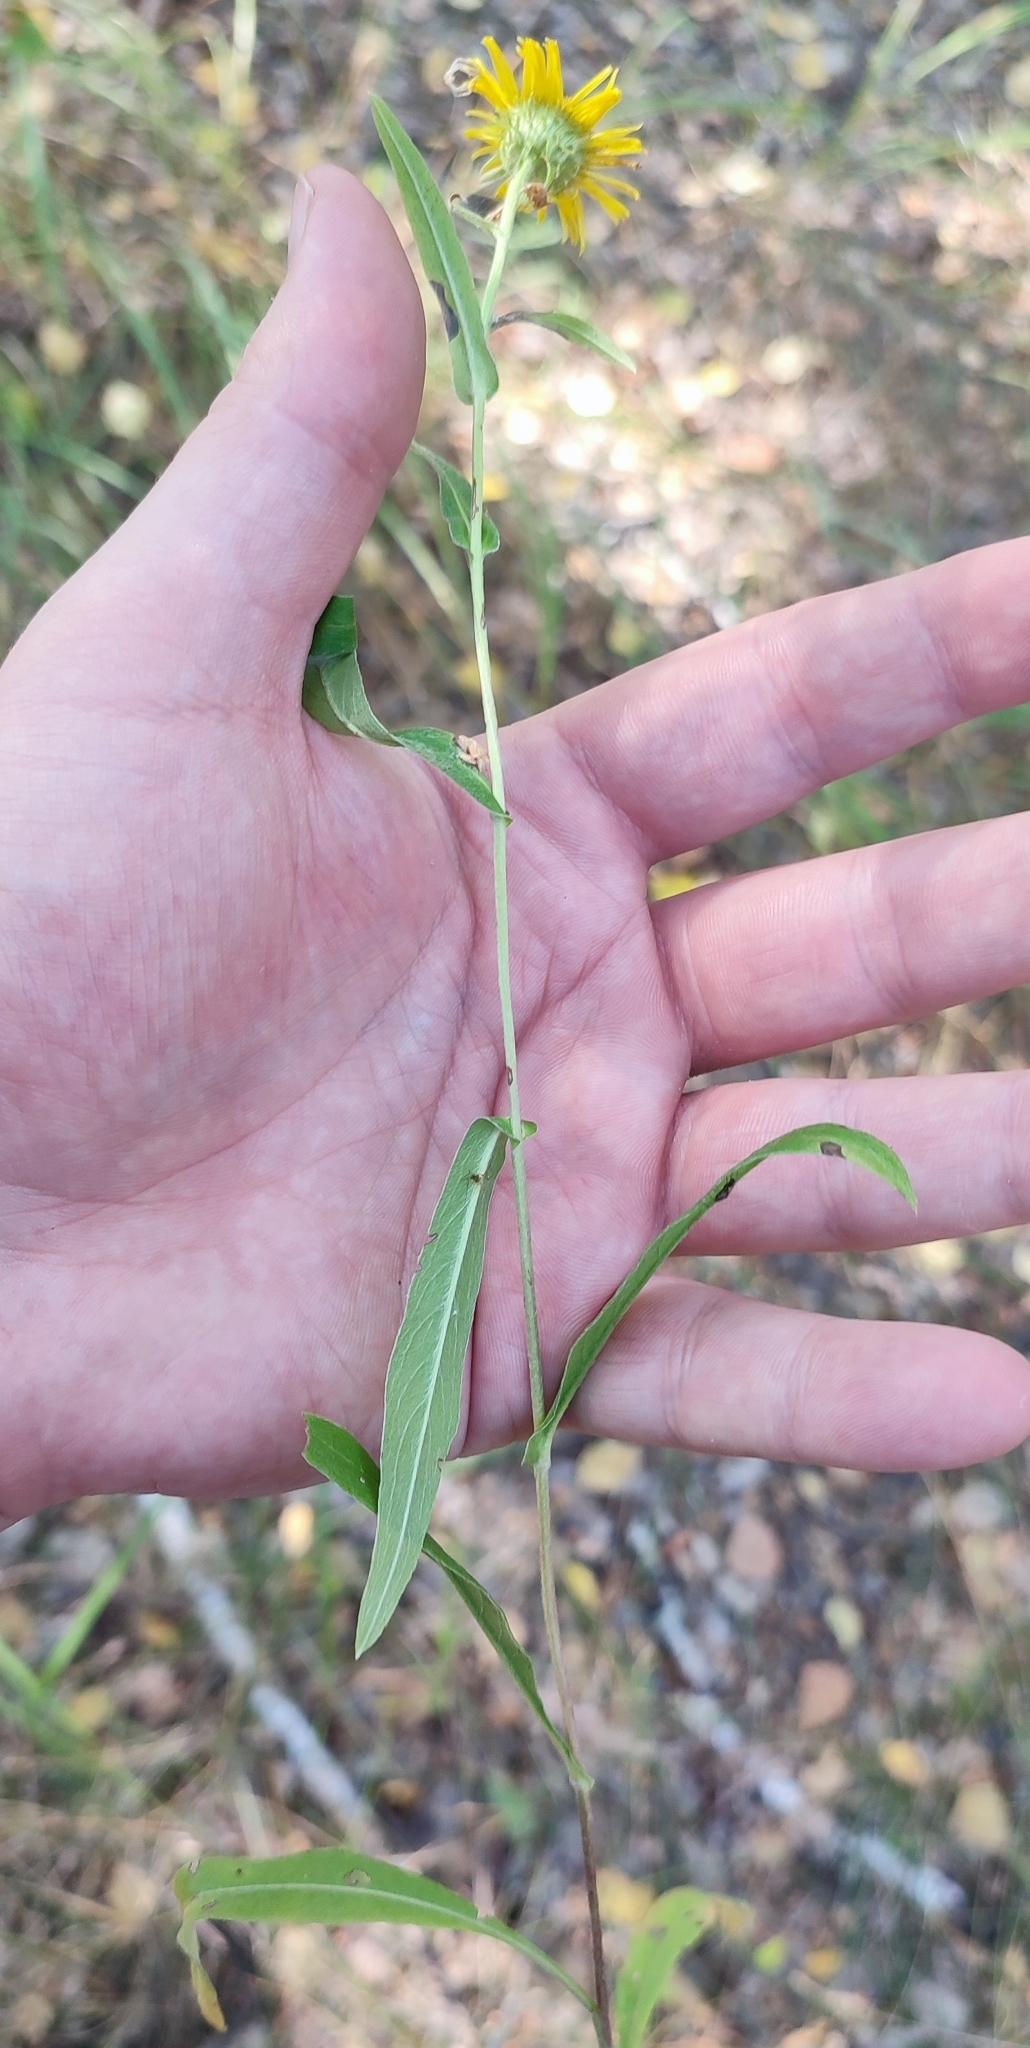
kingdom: Plantae
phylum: Tracheophyta
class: Magnoliopsida
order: Asterales
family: Asteraceae
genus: Pentanema
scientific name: Pentanema britannicum
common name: British elecampane
